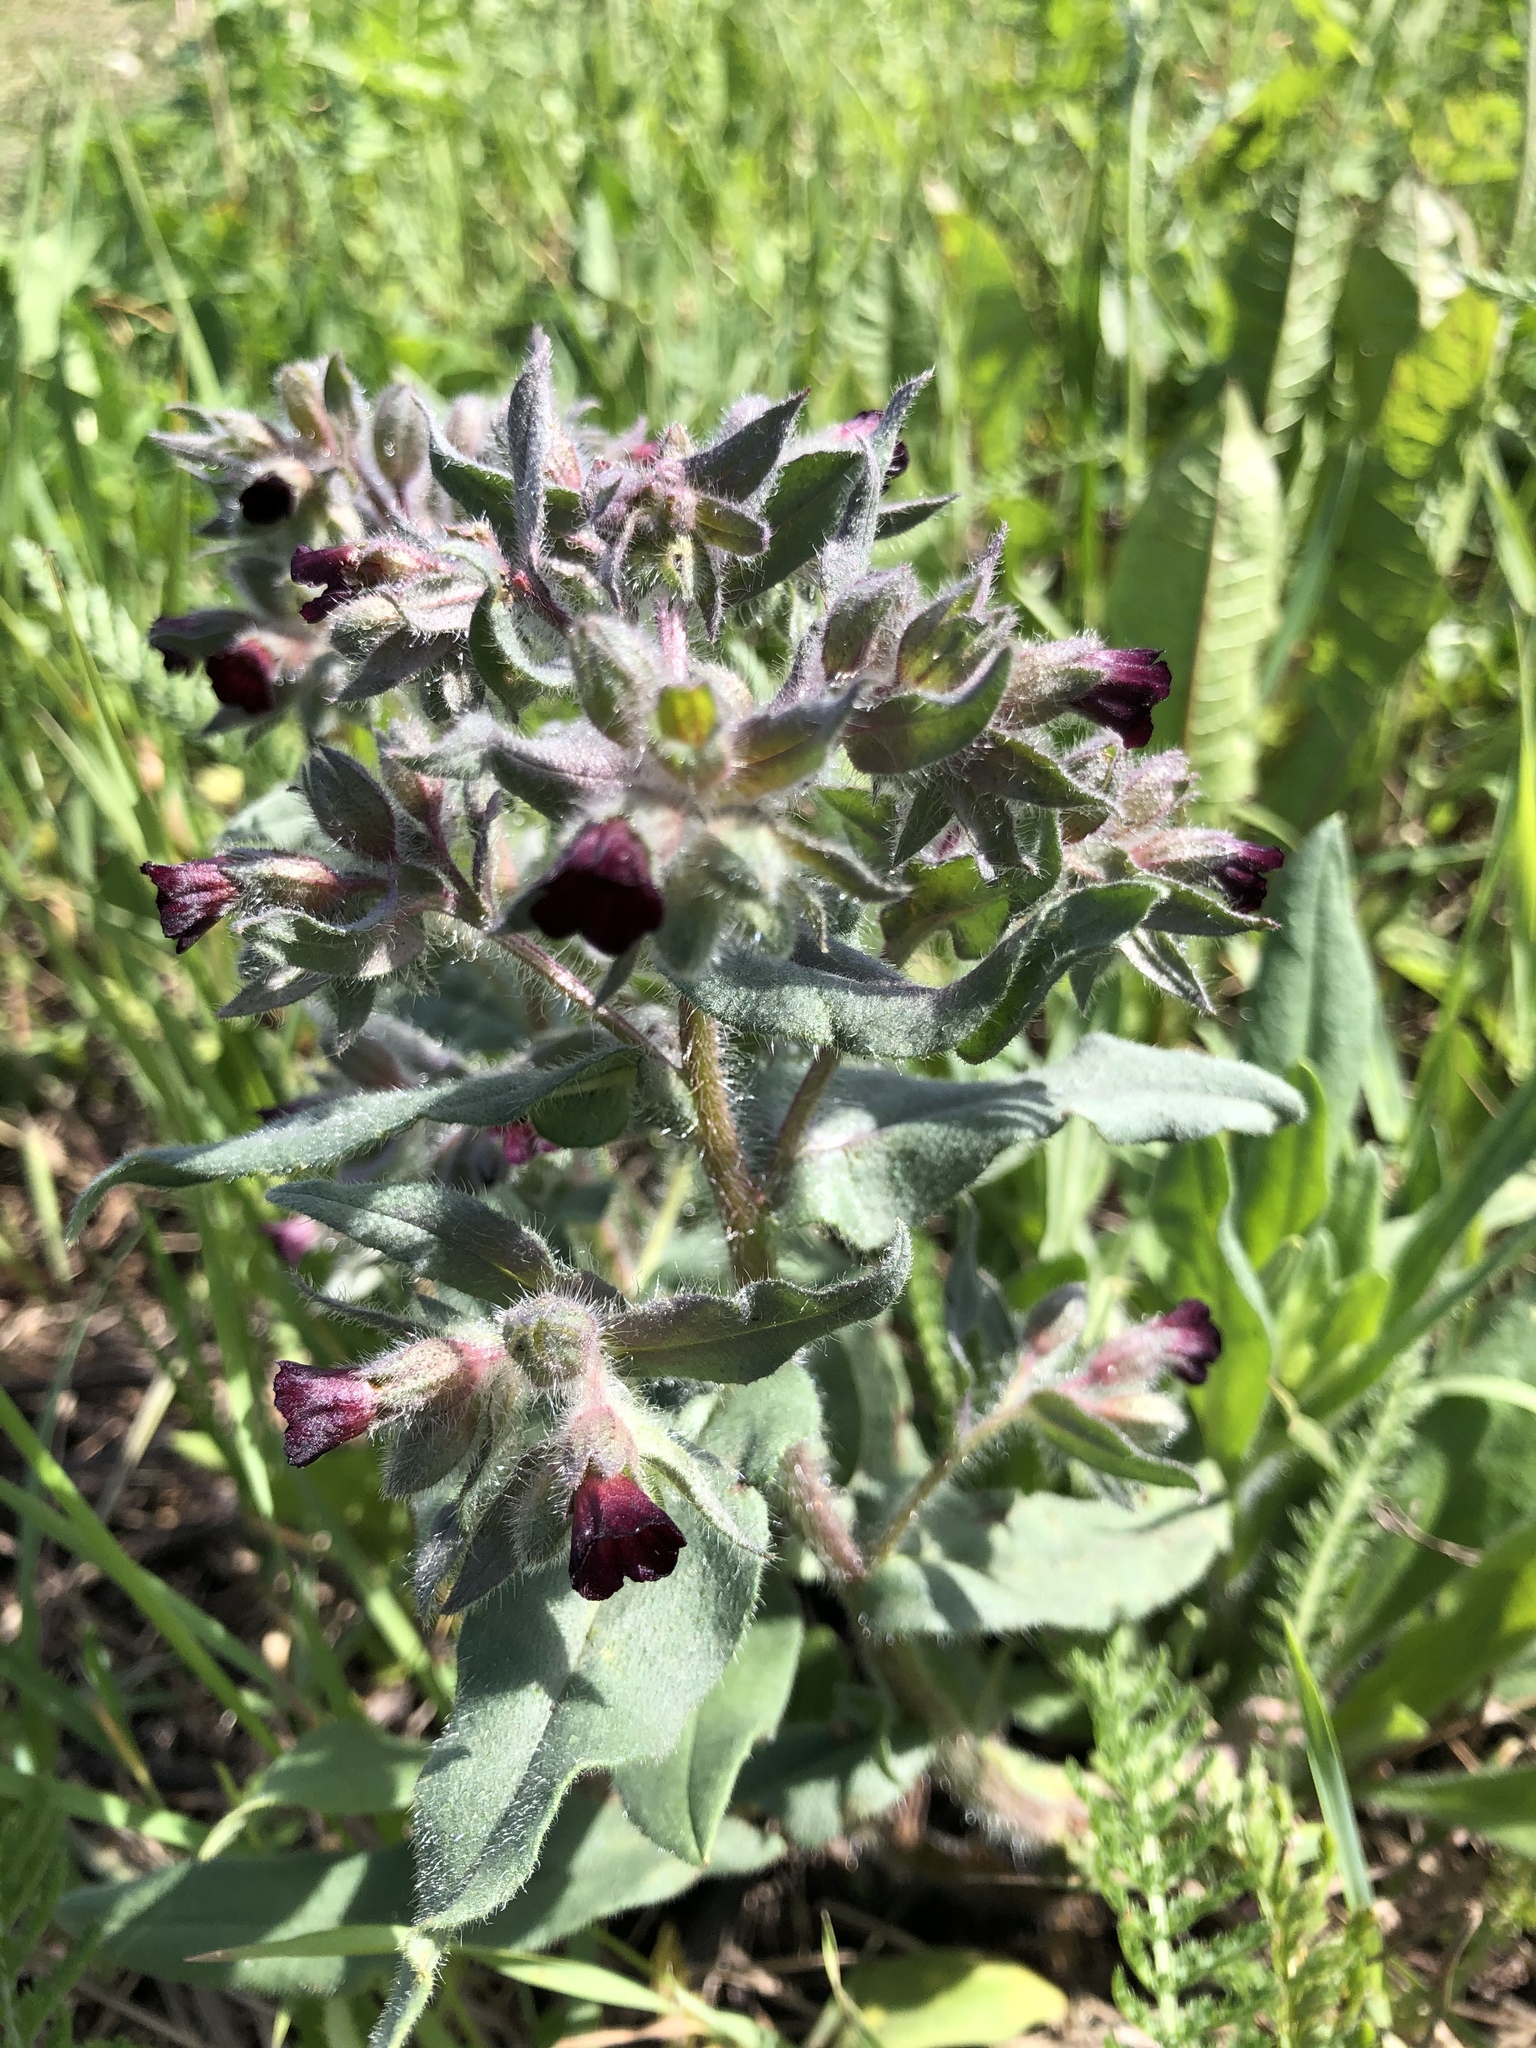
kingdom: Plantae
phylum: Tracheophyta
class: Magnoliopsida
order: Boraginales
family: Boraginaceae
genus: Nonea
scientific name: Nonea pulla
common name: Brown nonea
